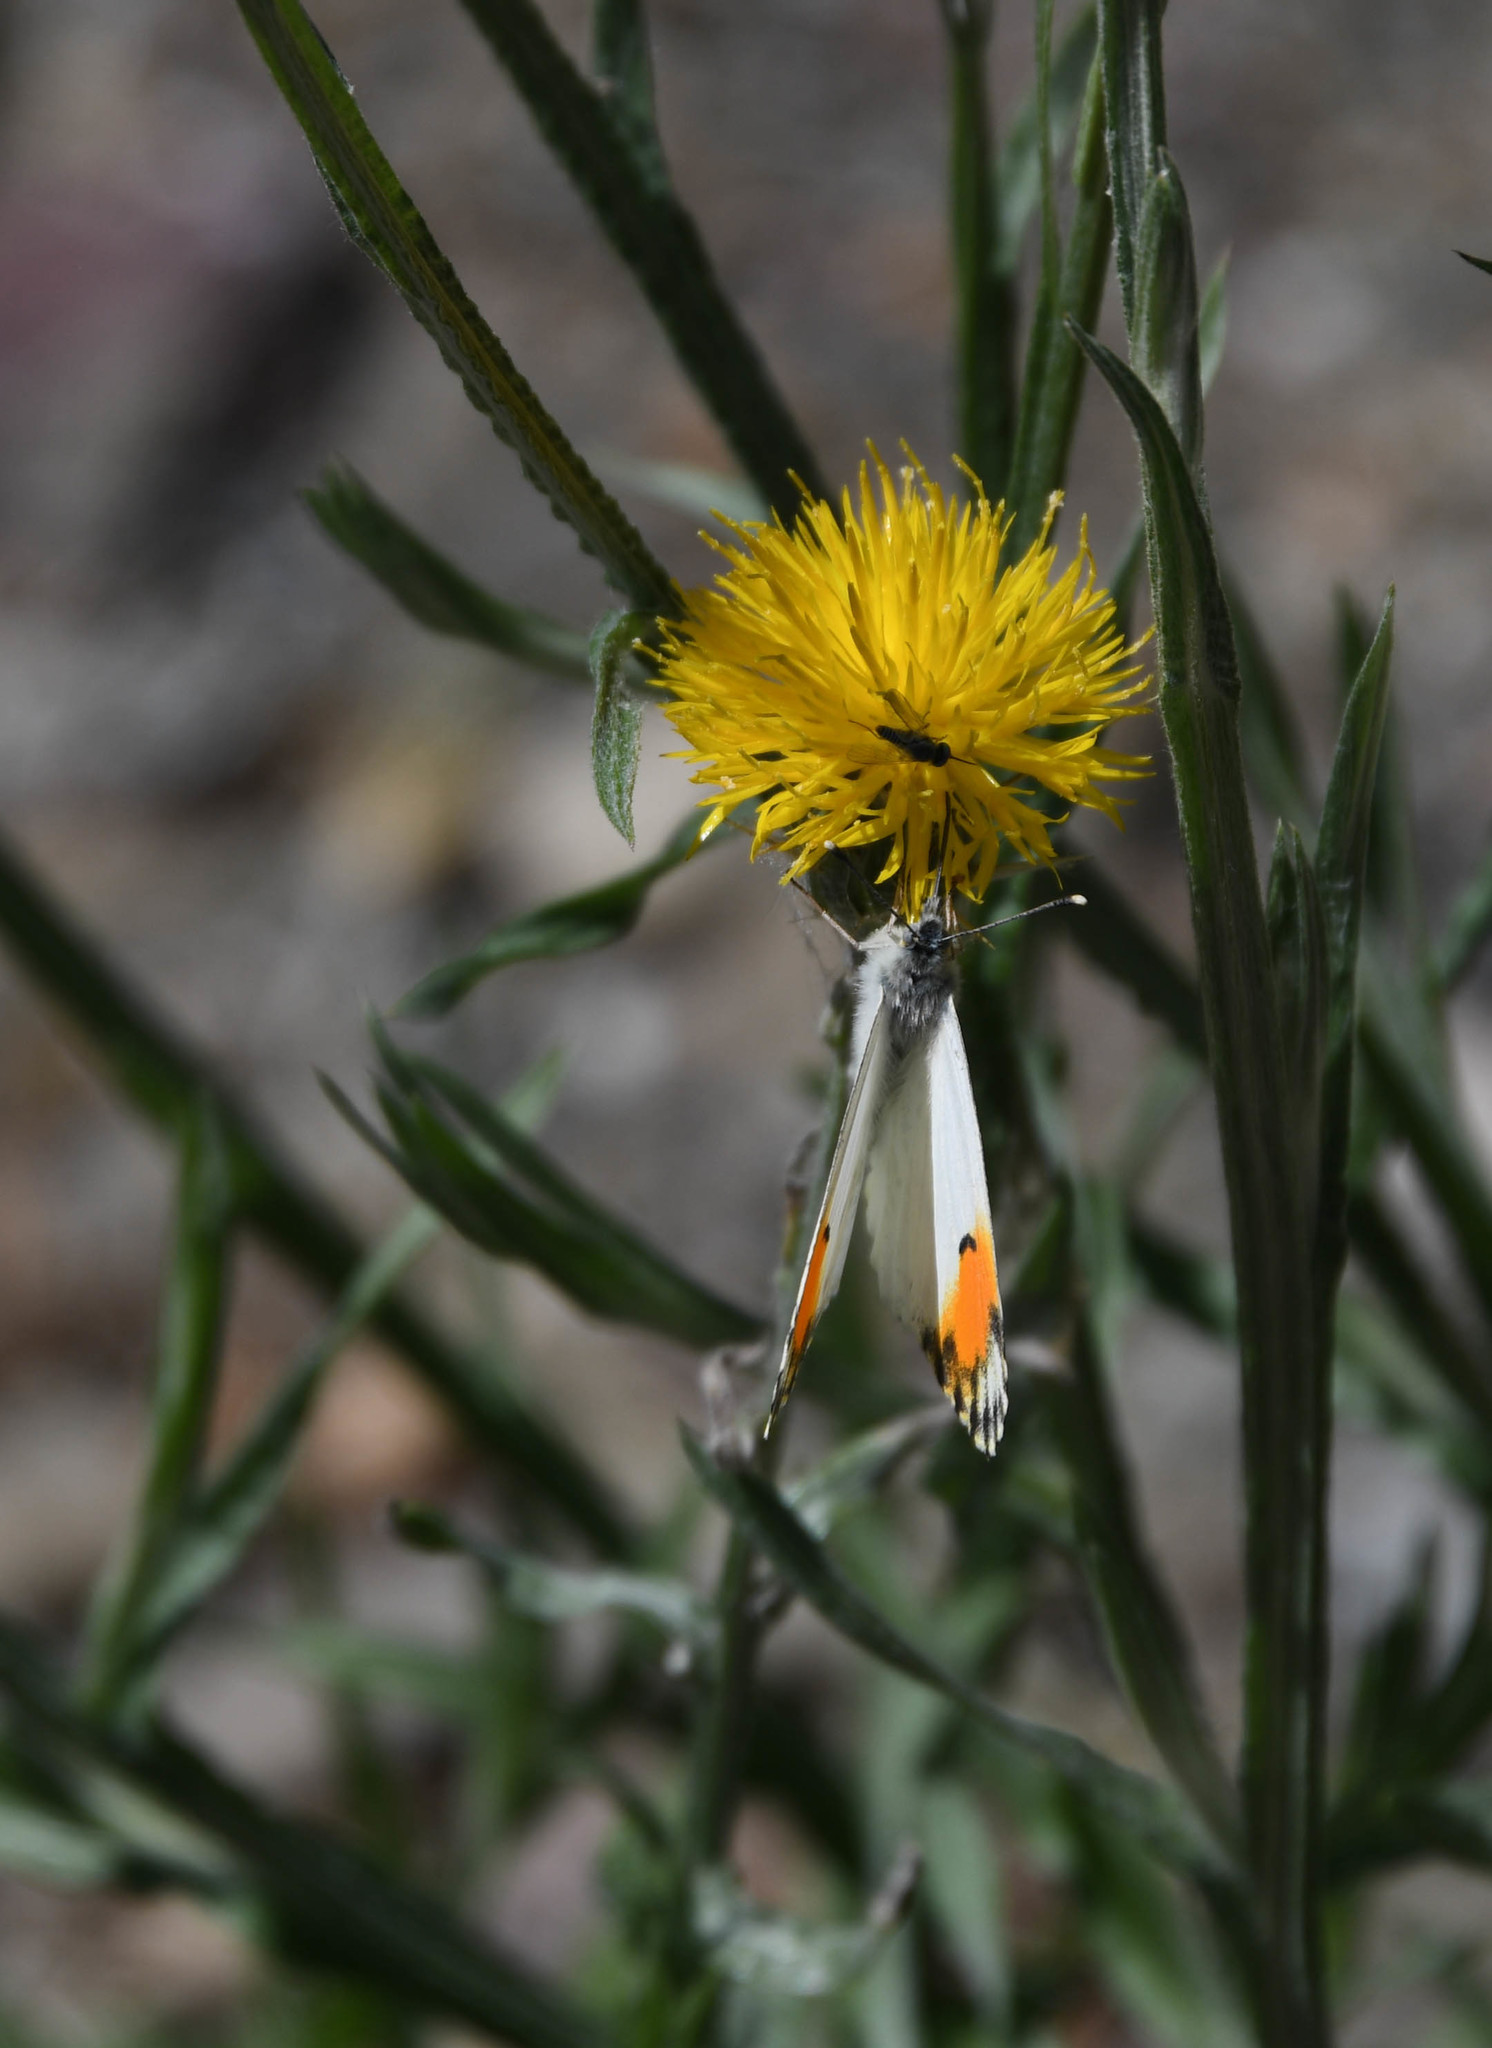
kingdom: Animalia
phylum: Arthropoda
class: Insecta
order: Lepidoptera
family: Pieridae
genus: Anthocharis
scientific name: Anthocharis sara
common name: Sara's orangetip
